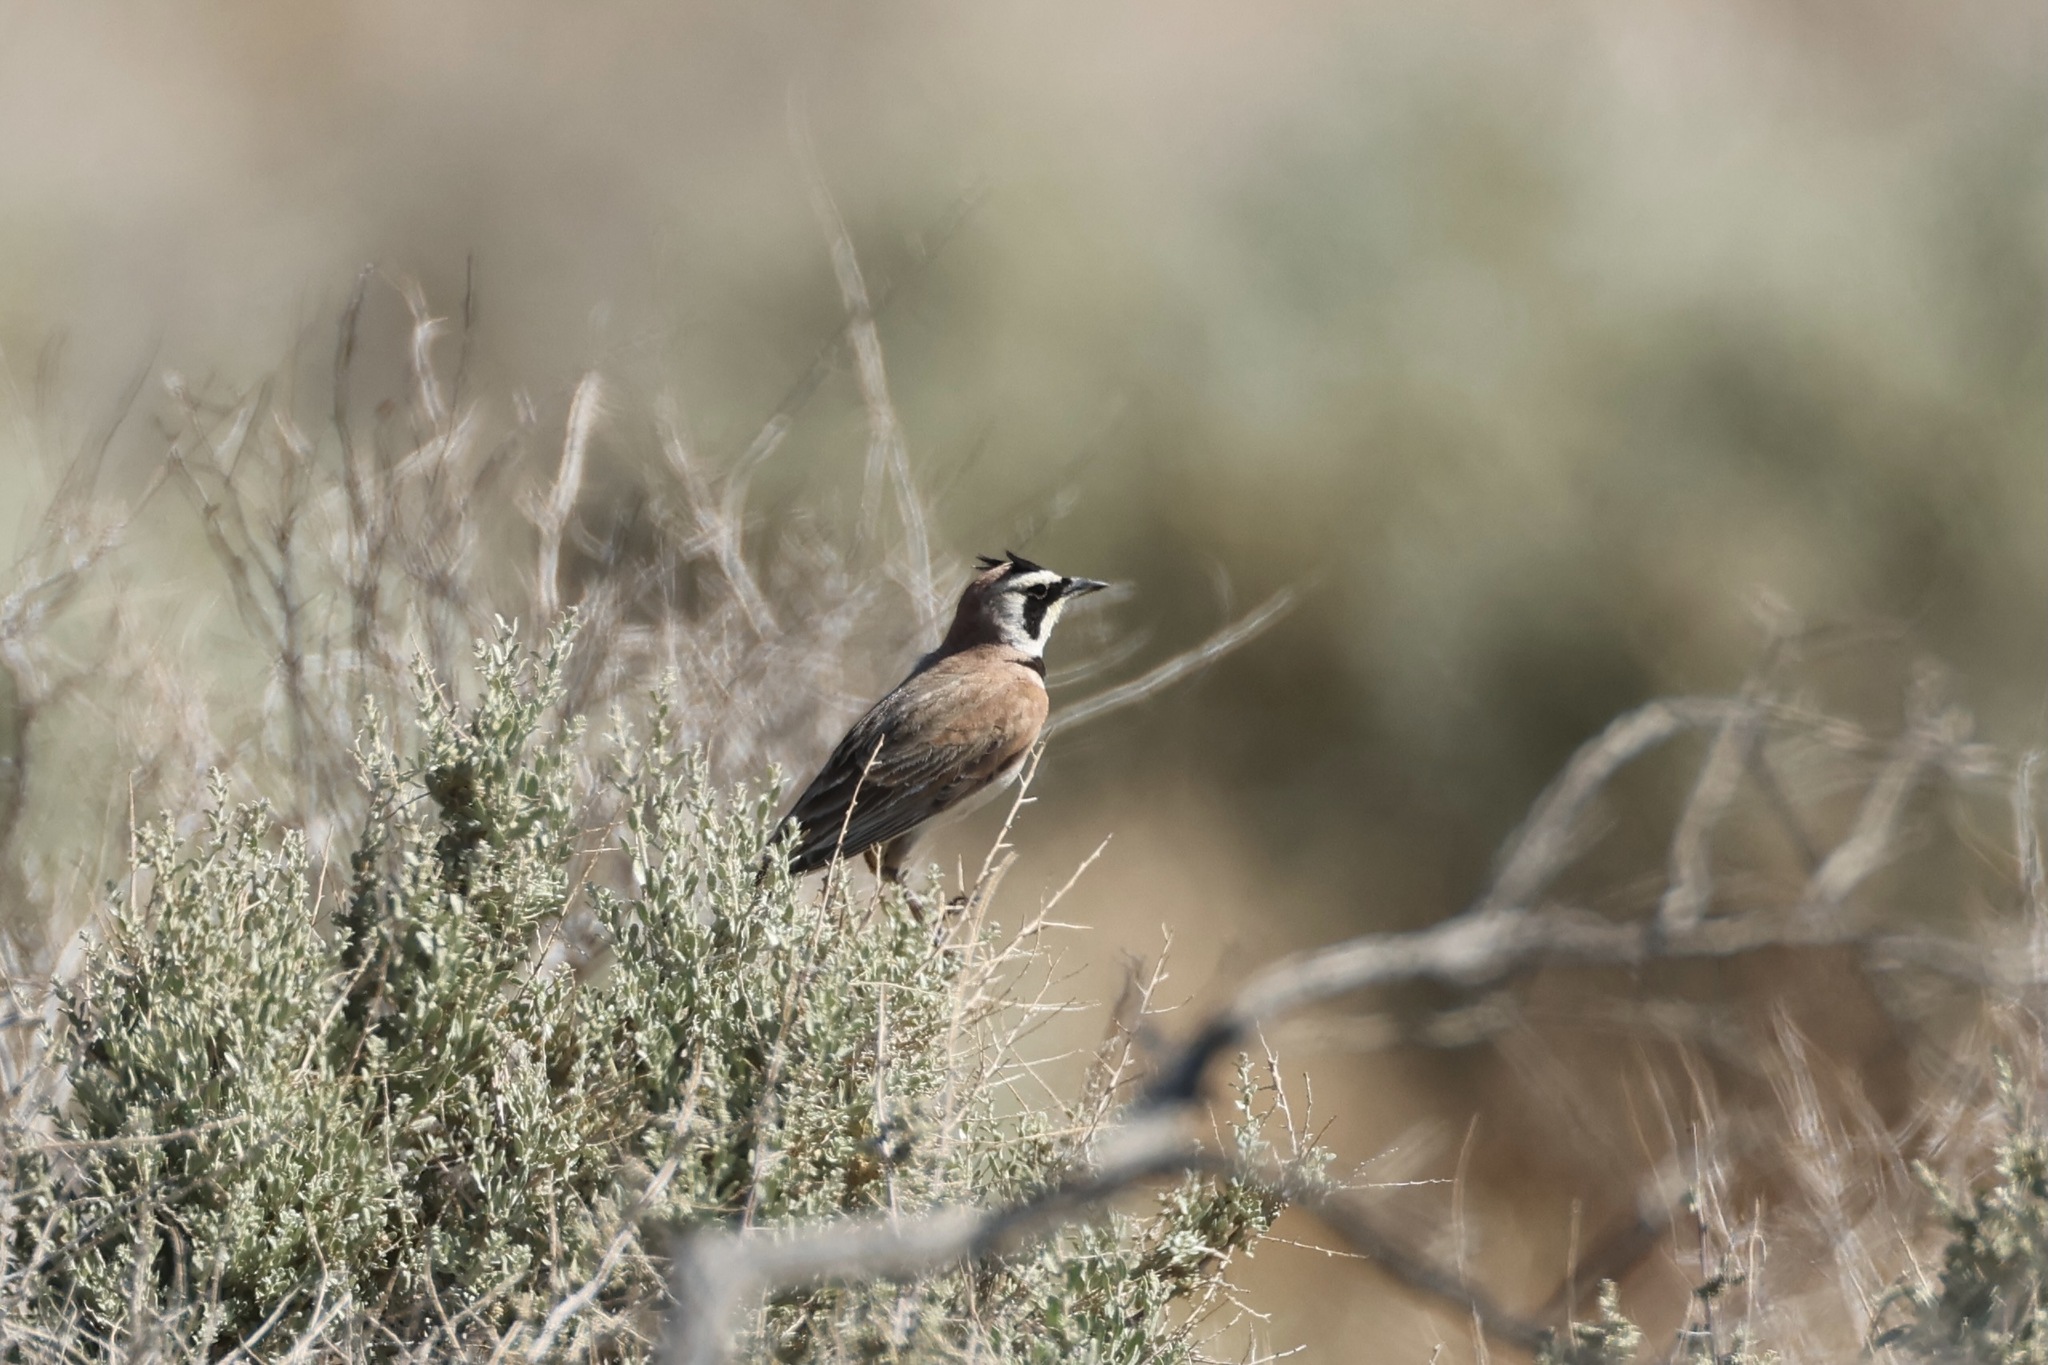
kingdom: Animalia
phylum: Chordata
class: Aves
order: Passeriformes
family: Alaudidae
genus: Eremophila
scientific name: Eremophila alpestris
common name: Horned lark
